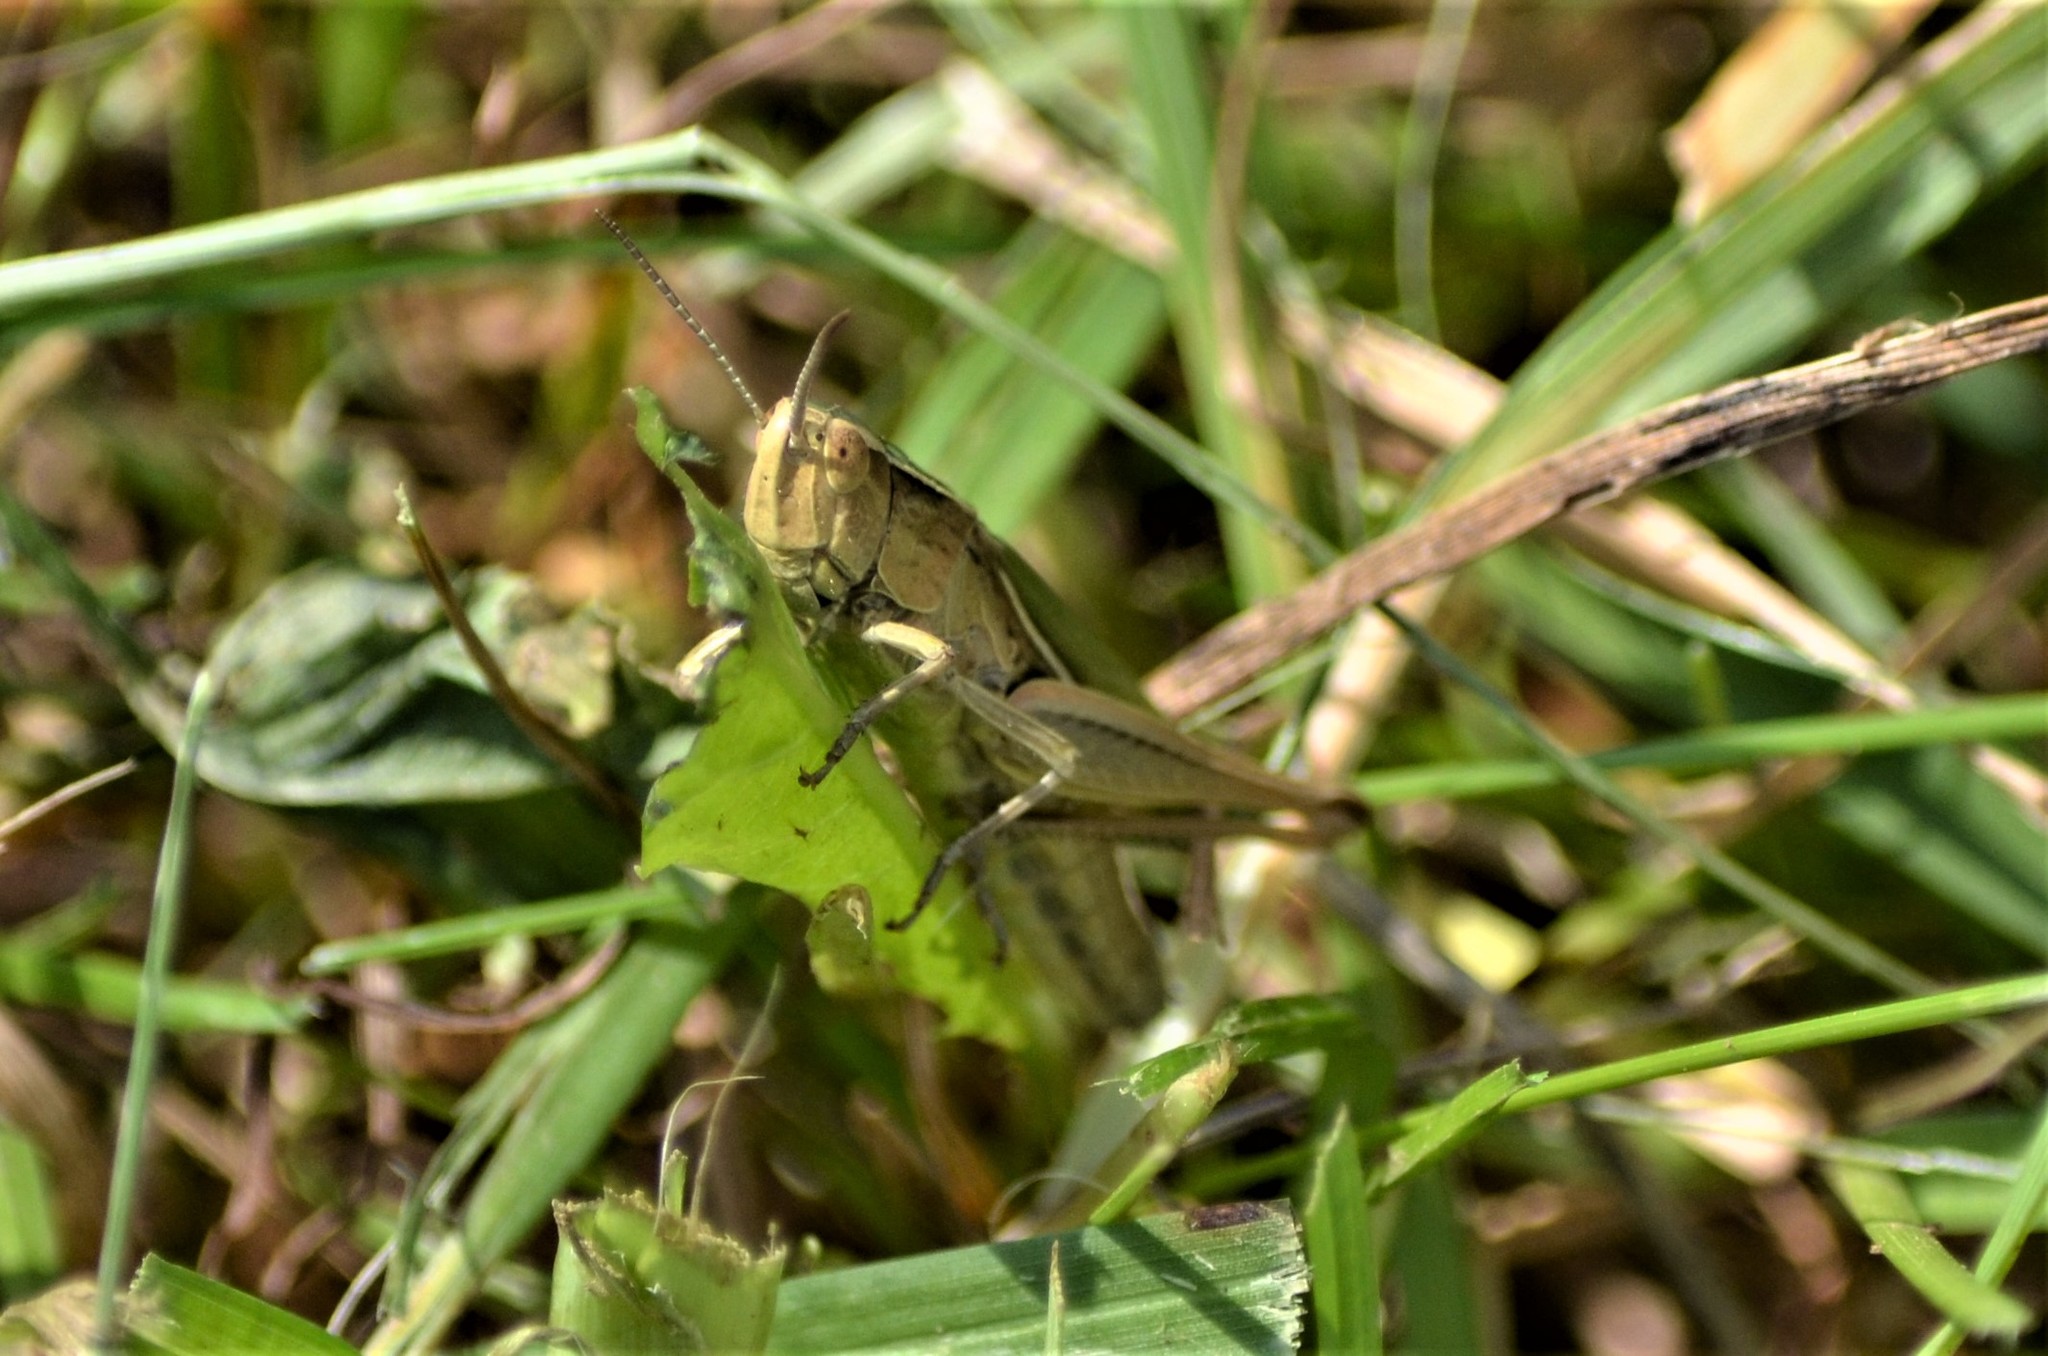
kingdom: Animalia
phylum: Arthropoda
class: Insecta
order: Orthoptera
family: Acrididae
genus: Chorthippus
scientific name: Chorthippus albomarginatus
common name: Lesser marsh grasshopper
